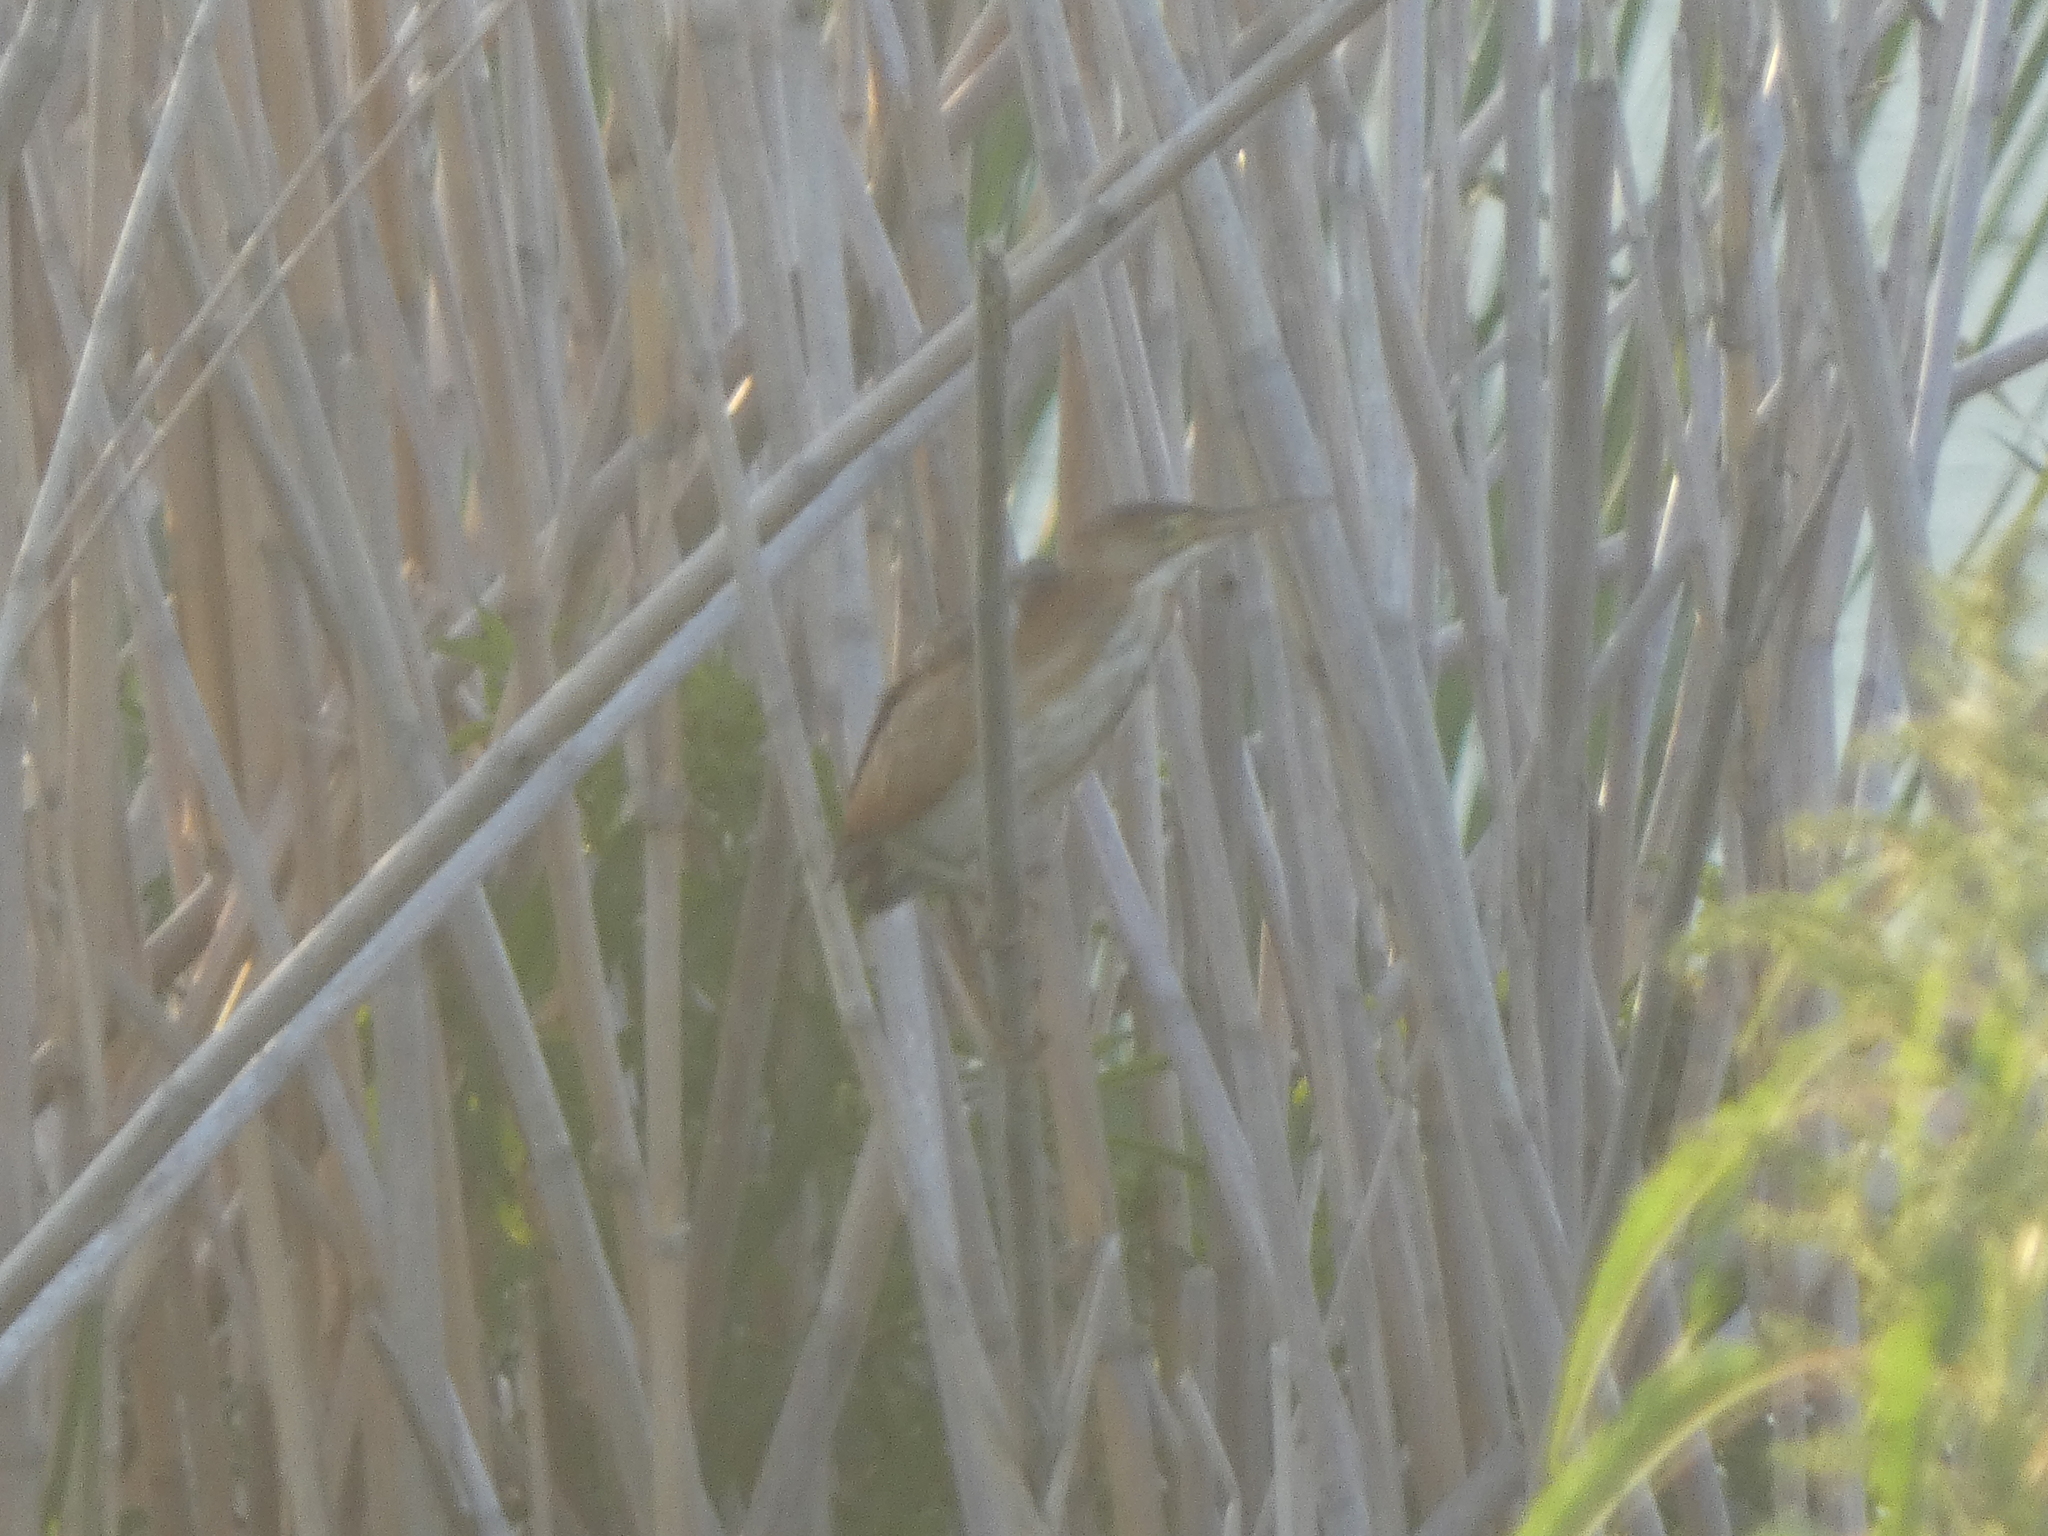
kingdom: Animalia
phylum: Chordata
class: Aves
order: Pelecaniformes
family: Ardeidae
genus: Ixobrychus
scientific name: Ixobrychus exilis
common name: Least bittern
